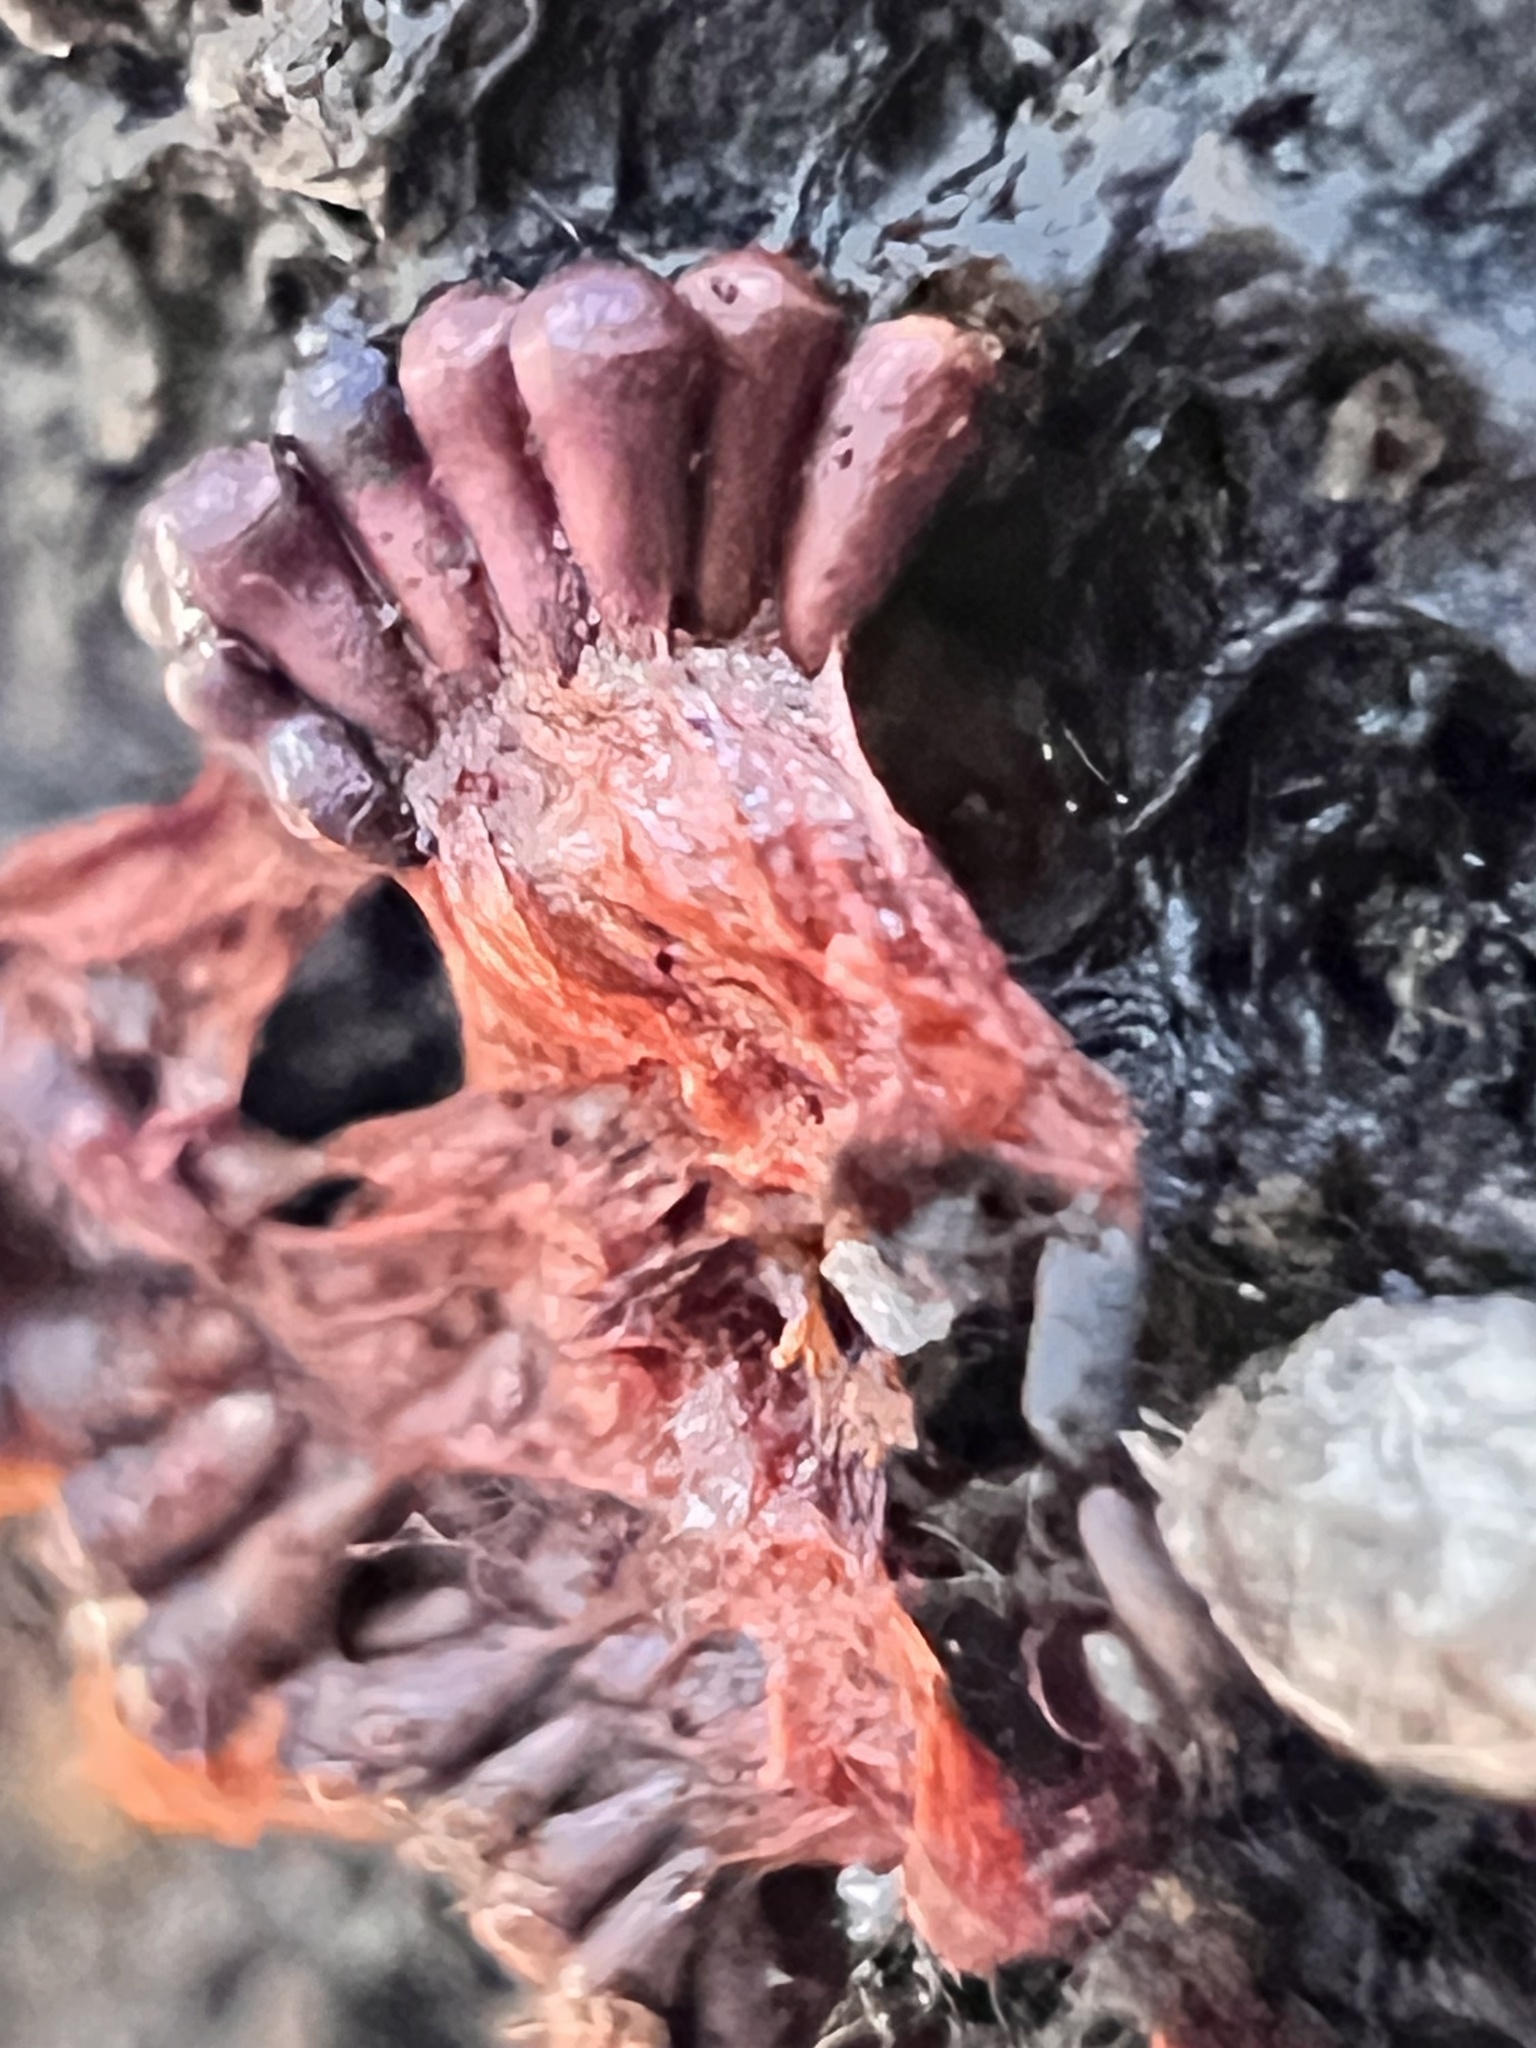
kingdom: Protozoa
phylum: Mycetozoa
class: Myxomycetes
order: Trichiales
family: Trichiaceae
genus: Metatrichia
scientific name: Metatrichia vesparia
